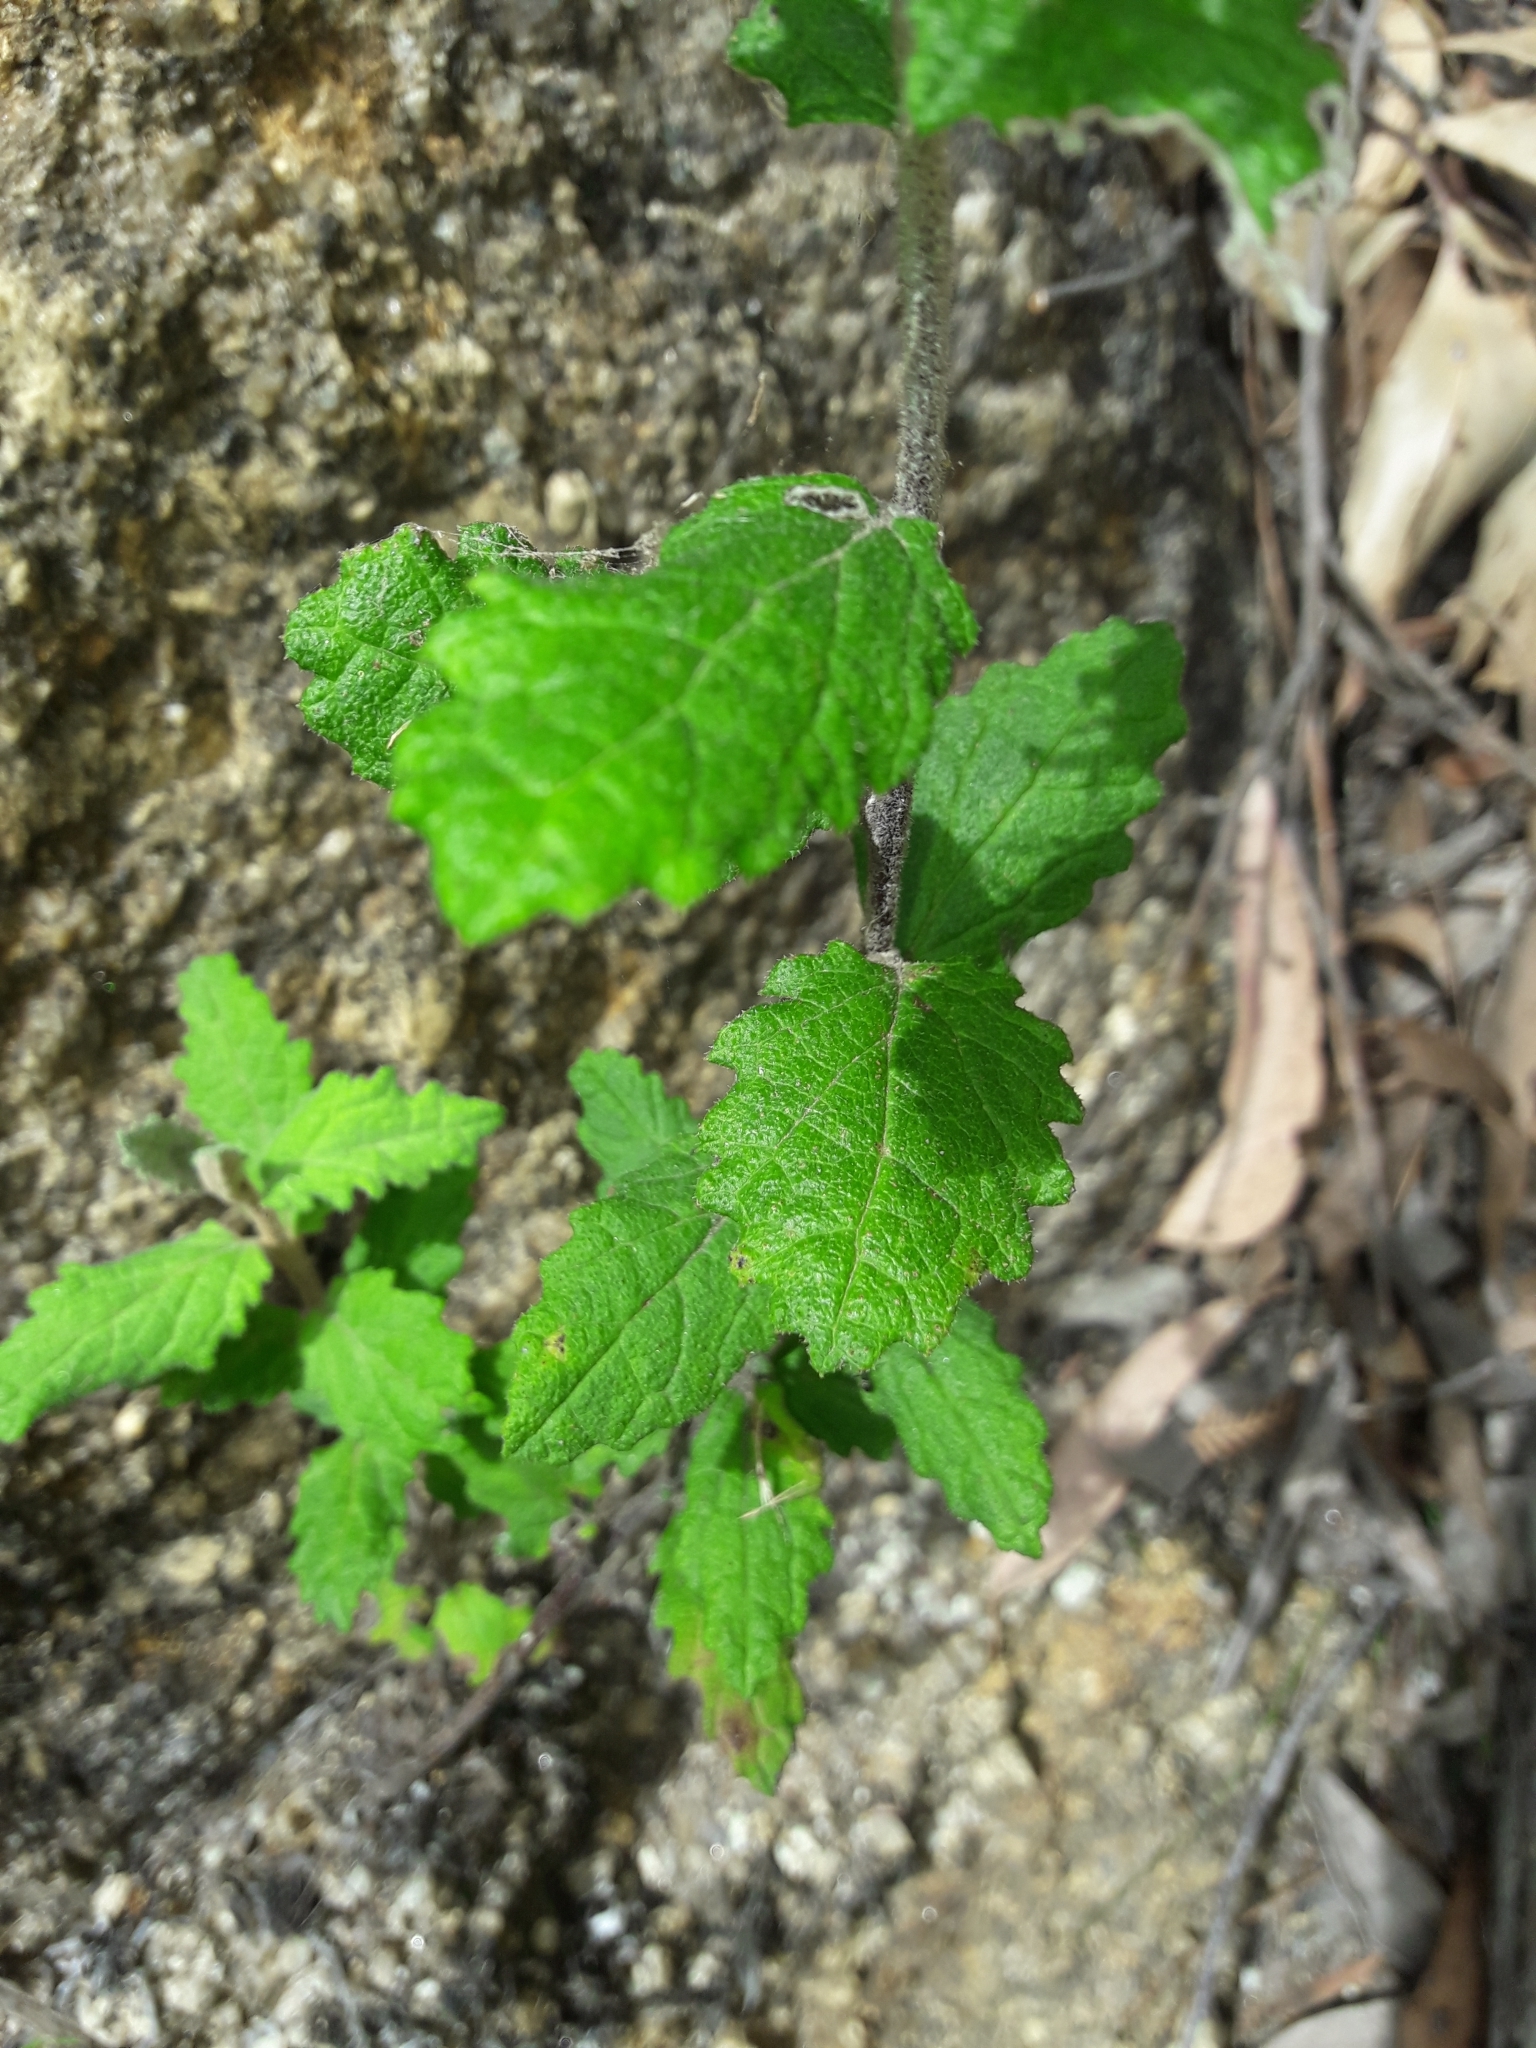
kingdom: Plantae
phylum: Tracheophyta
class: Magnoliopsida
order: Asterales
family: Asteraceae
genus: Olearia
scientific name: Olearia rugosa
